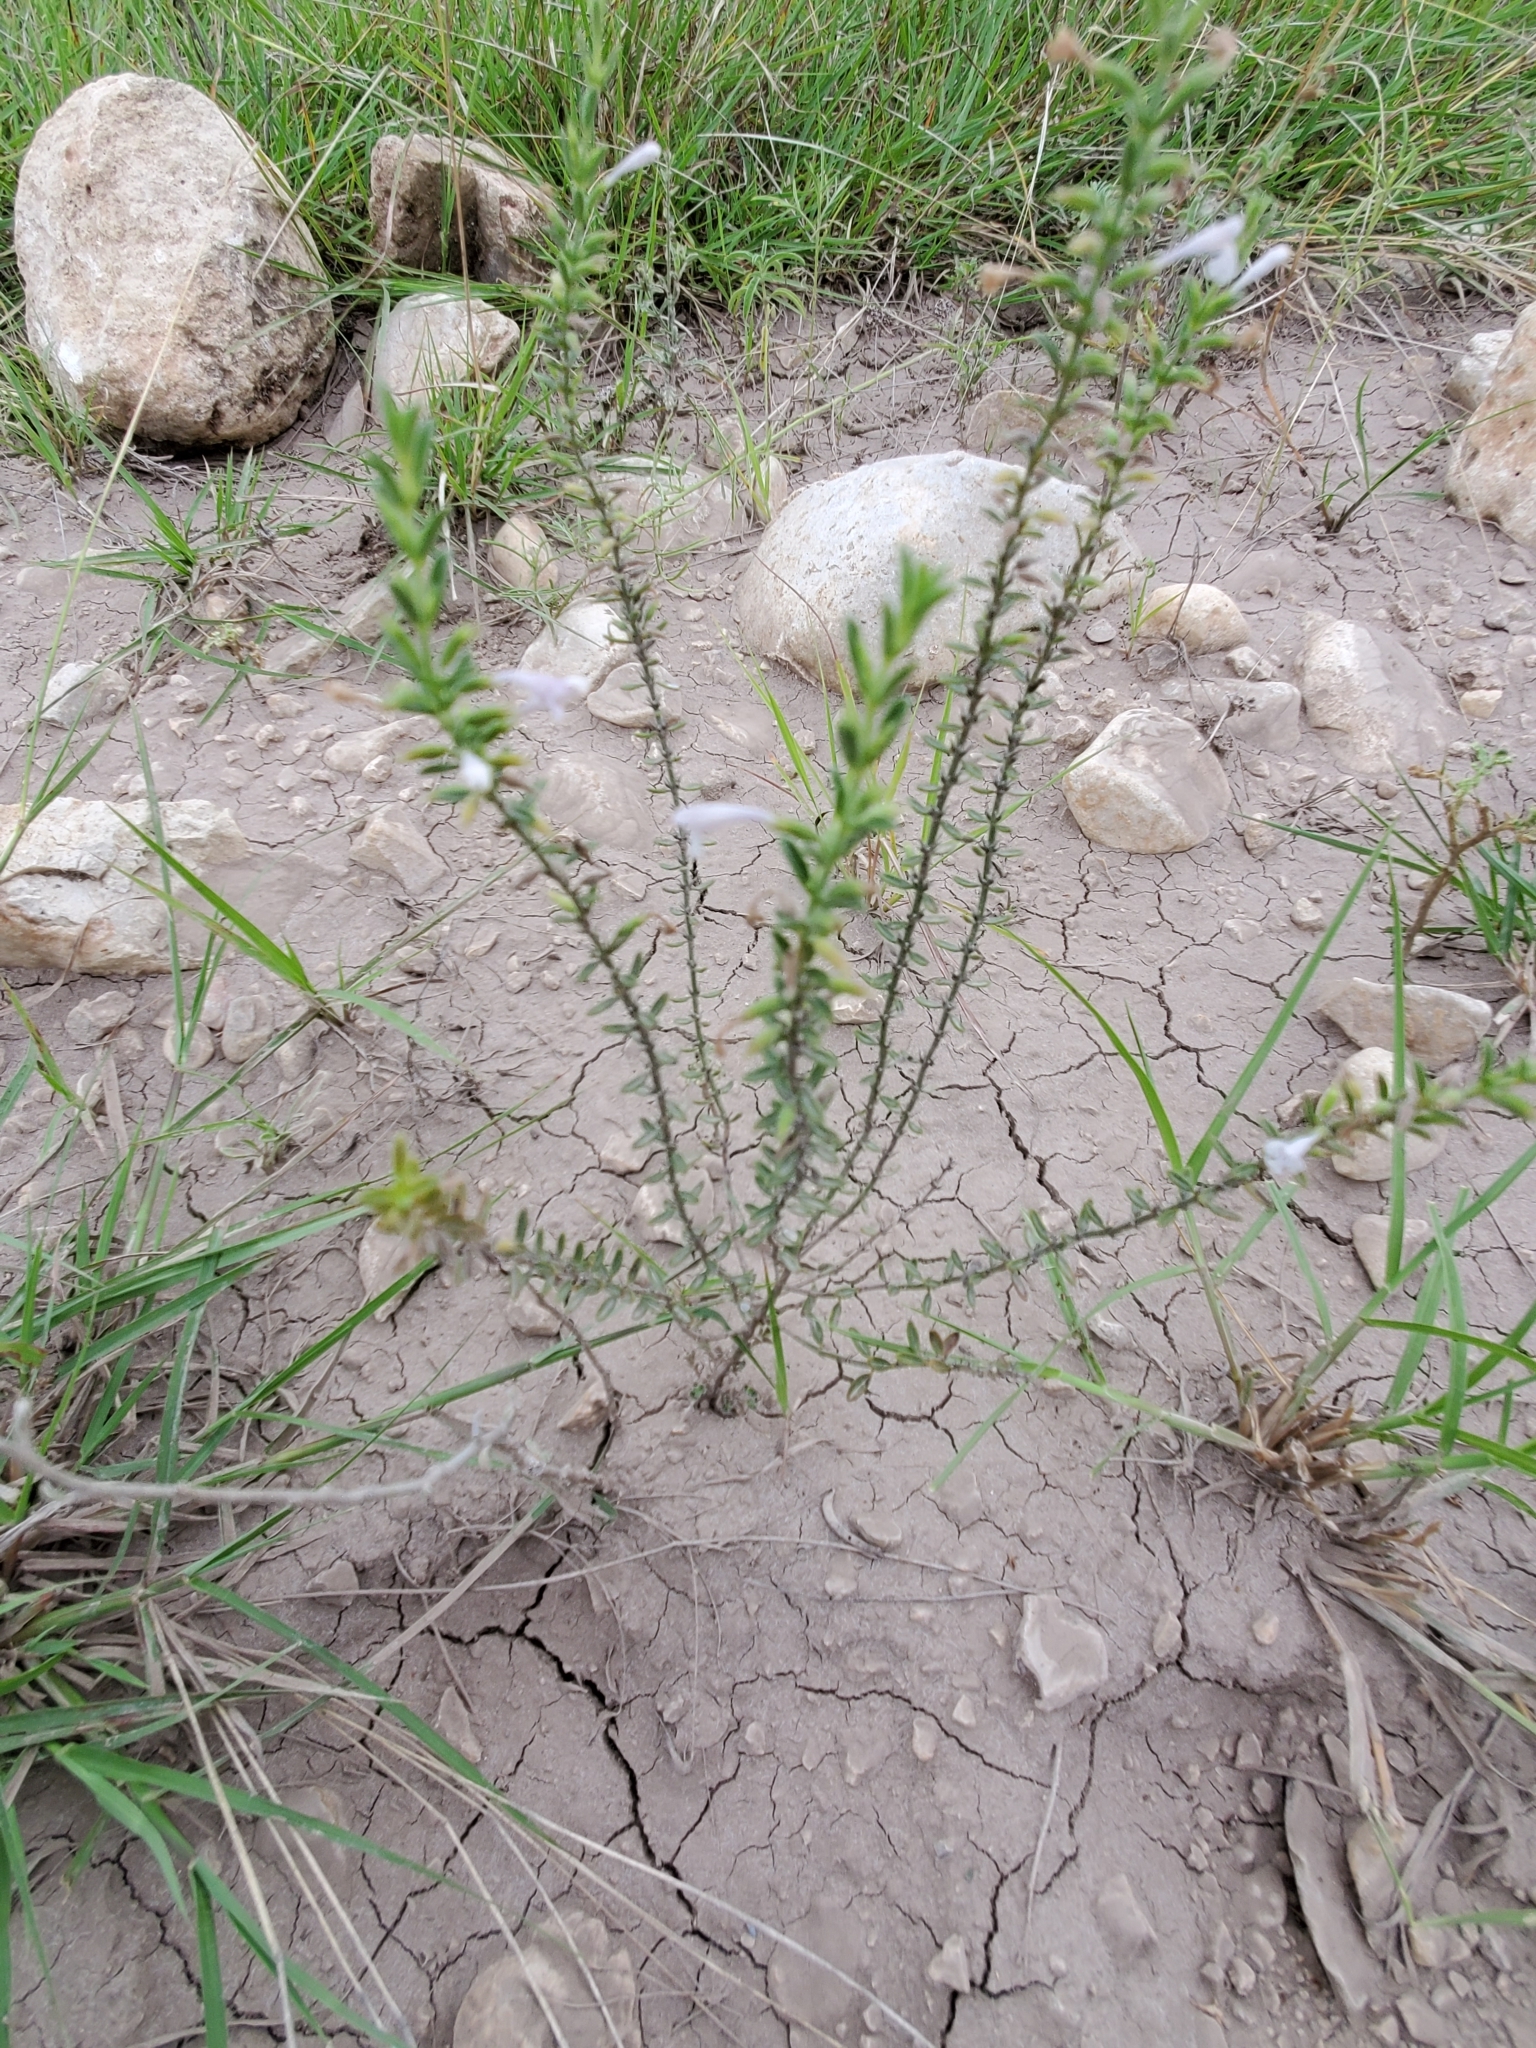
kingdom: Plantae
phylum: Tracheophyta
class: Magnoliopsida
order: Lamiales
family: Lamiaceae
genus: Hedeoma
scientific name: Hedeoma reverchonii
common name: Reverchon's false penny-royal
